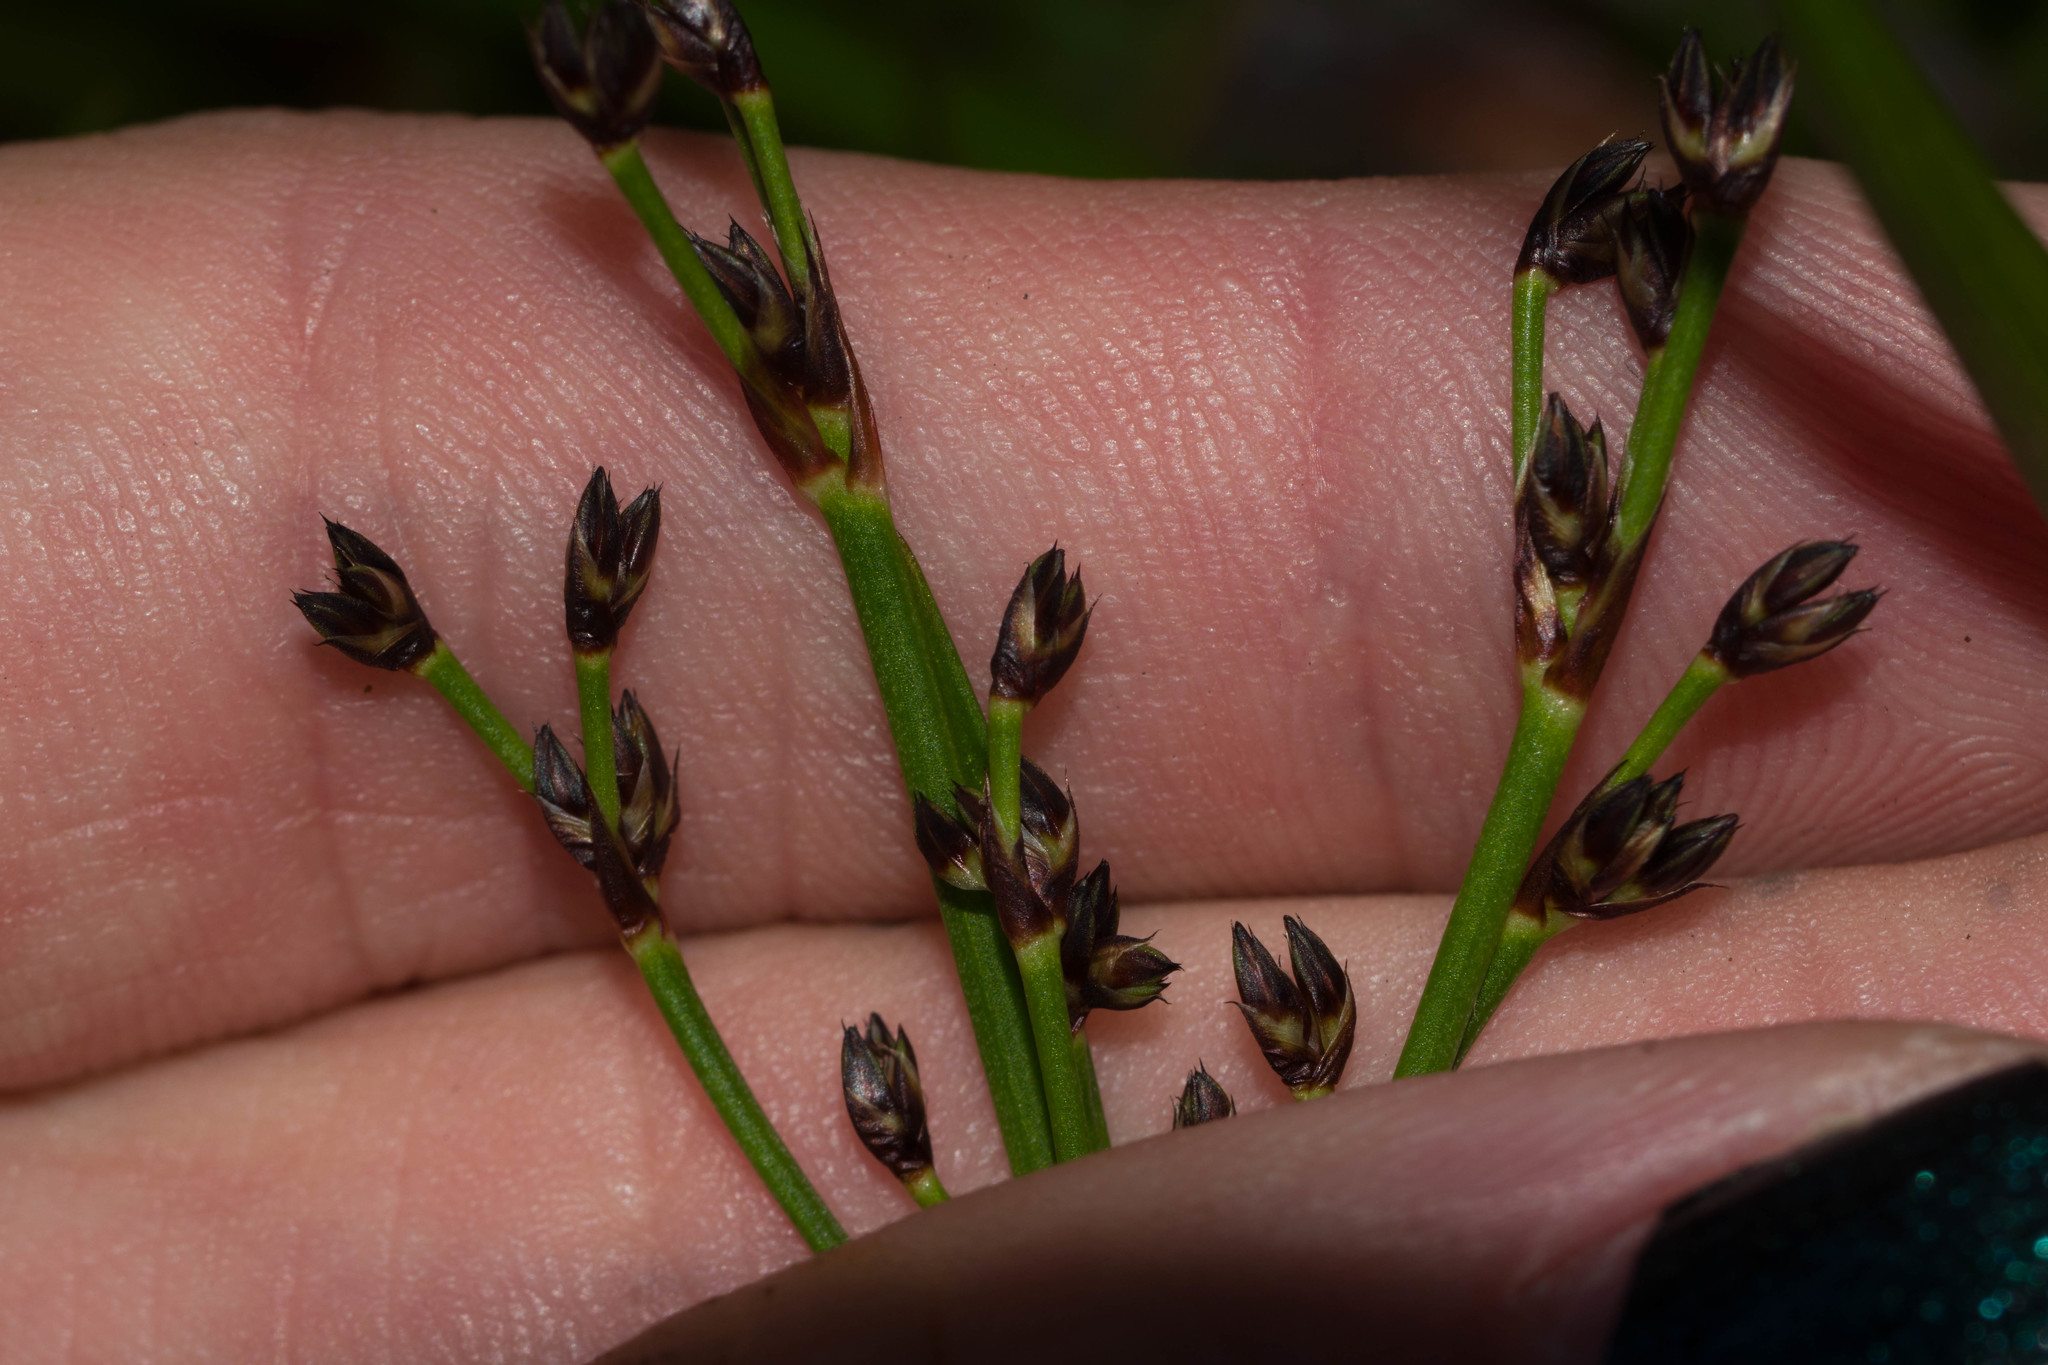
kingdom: Plantae
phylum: Tracheophyta
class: Liliopsida
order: Poales
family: Juncaceae
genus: Juncus
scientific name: Juncus planifolius
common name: Broadleaf rush
